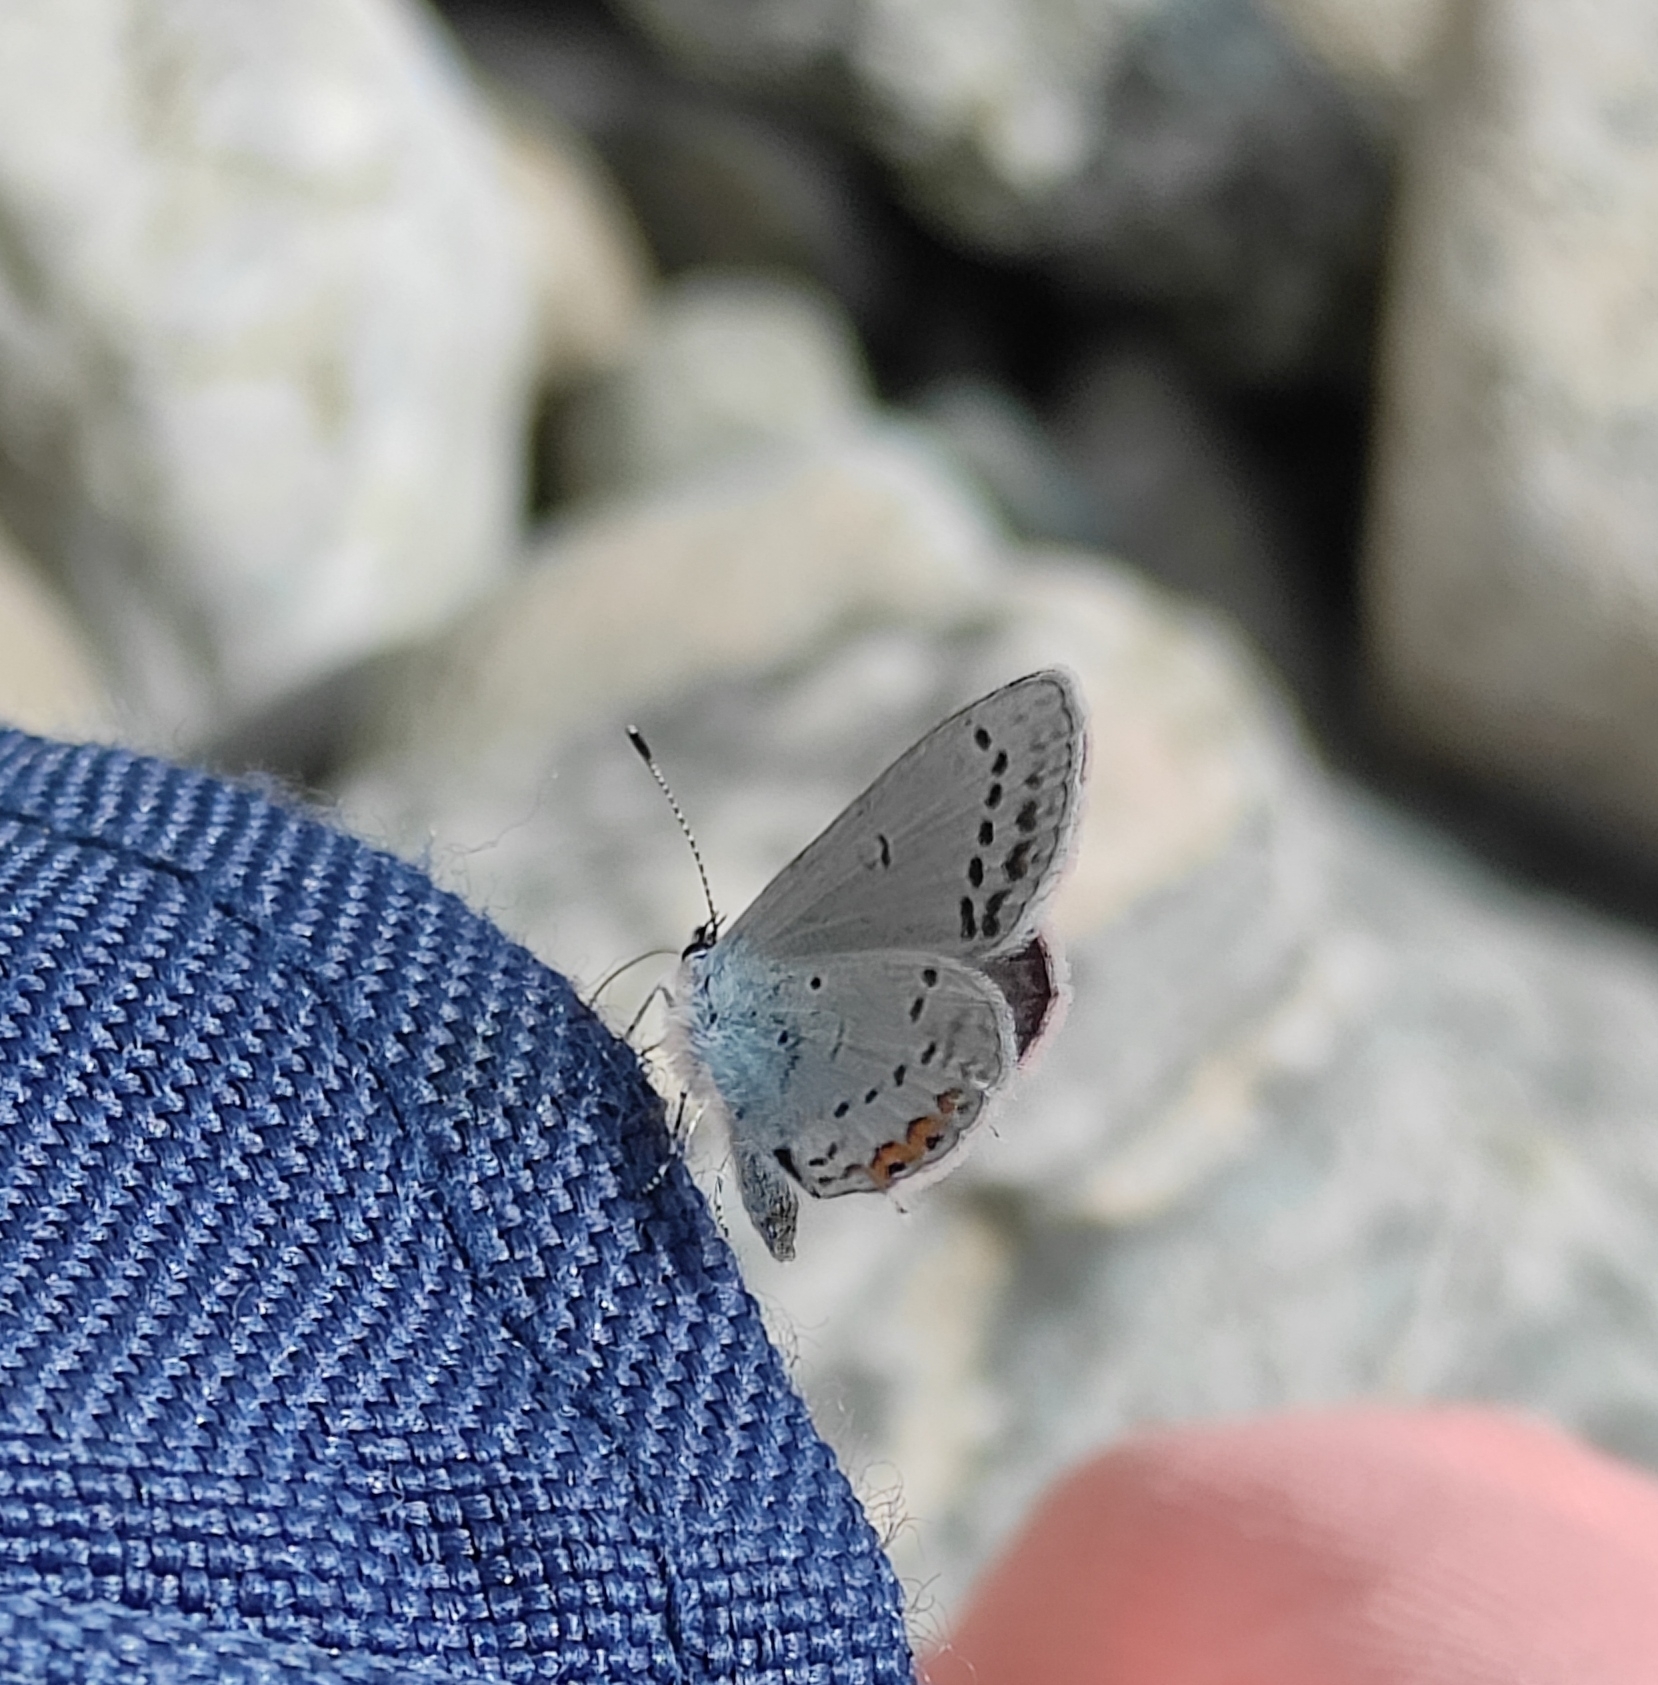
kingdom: Animalia
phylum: Arthropoda
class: Insecta
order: Lepidoptera
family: Lycaenidae
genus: Elkalyce
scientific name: Elkalyce argiades
